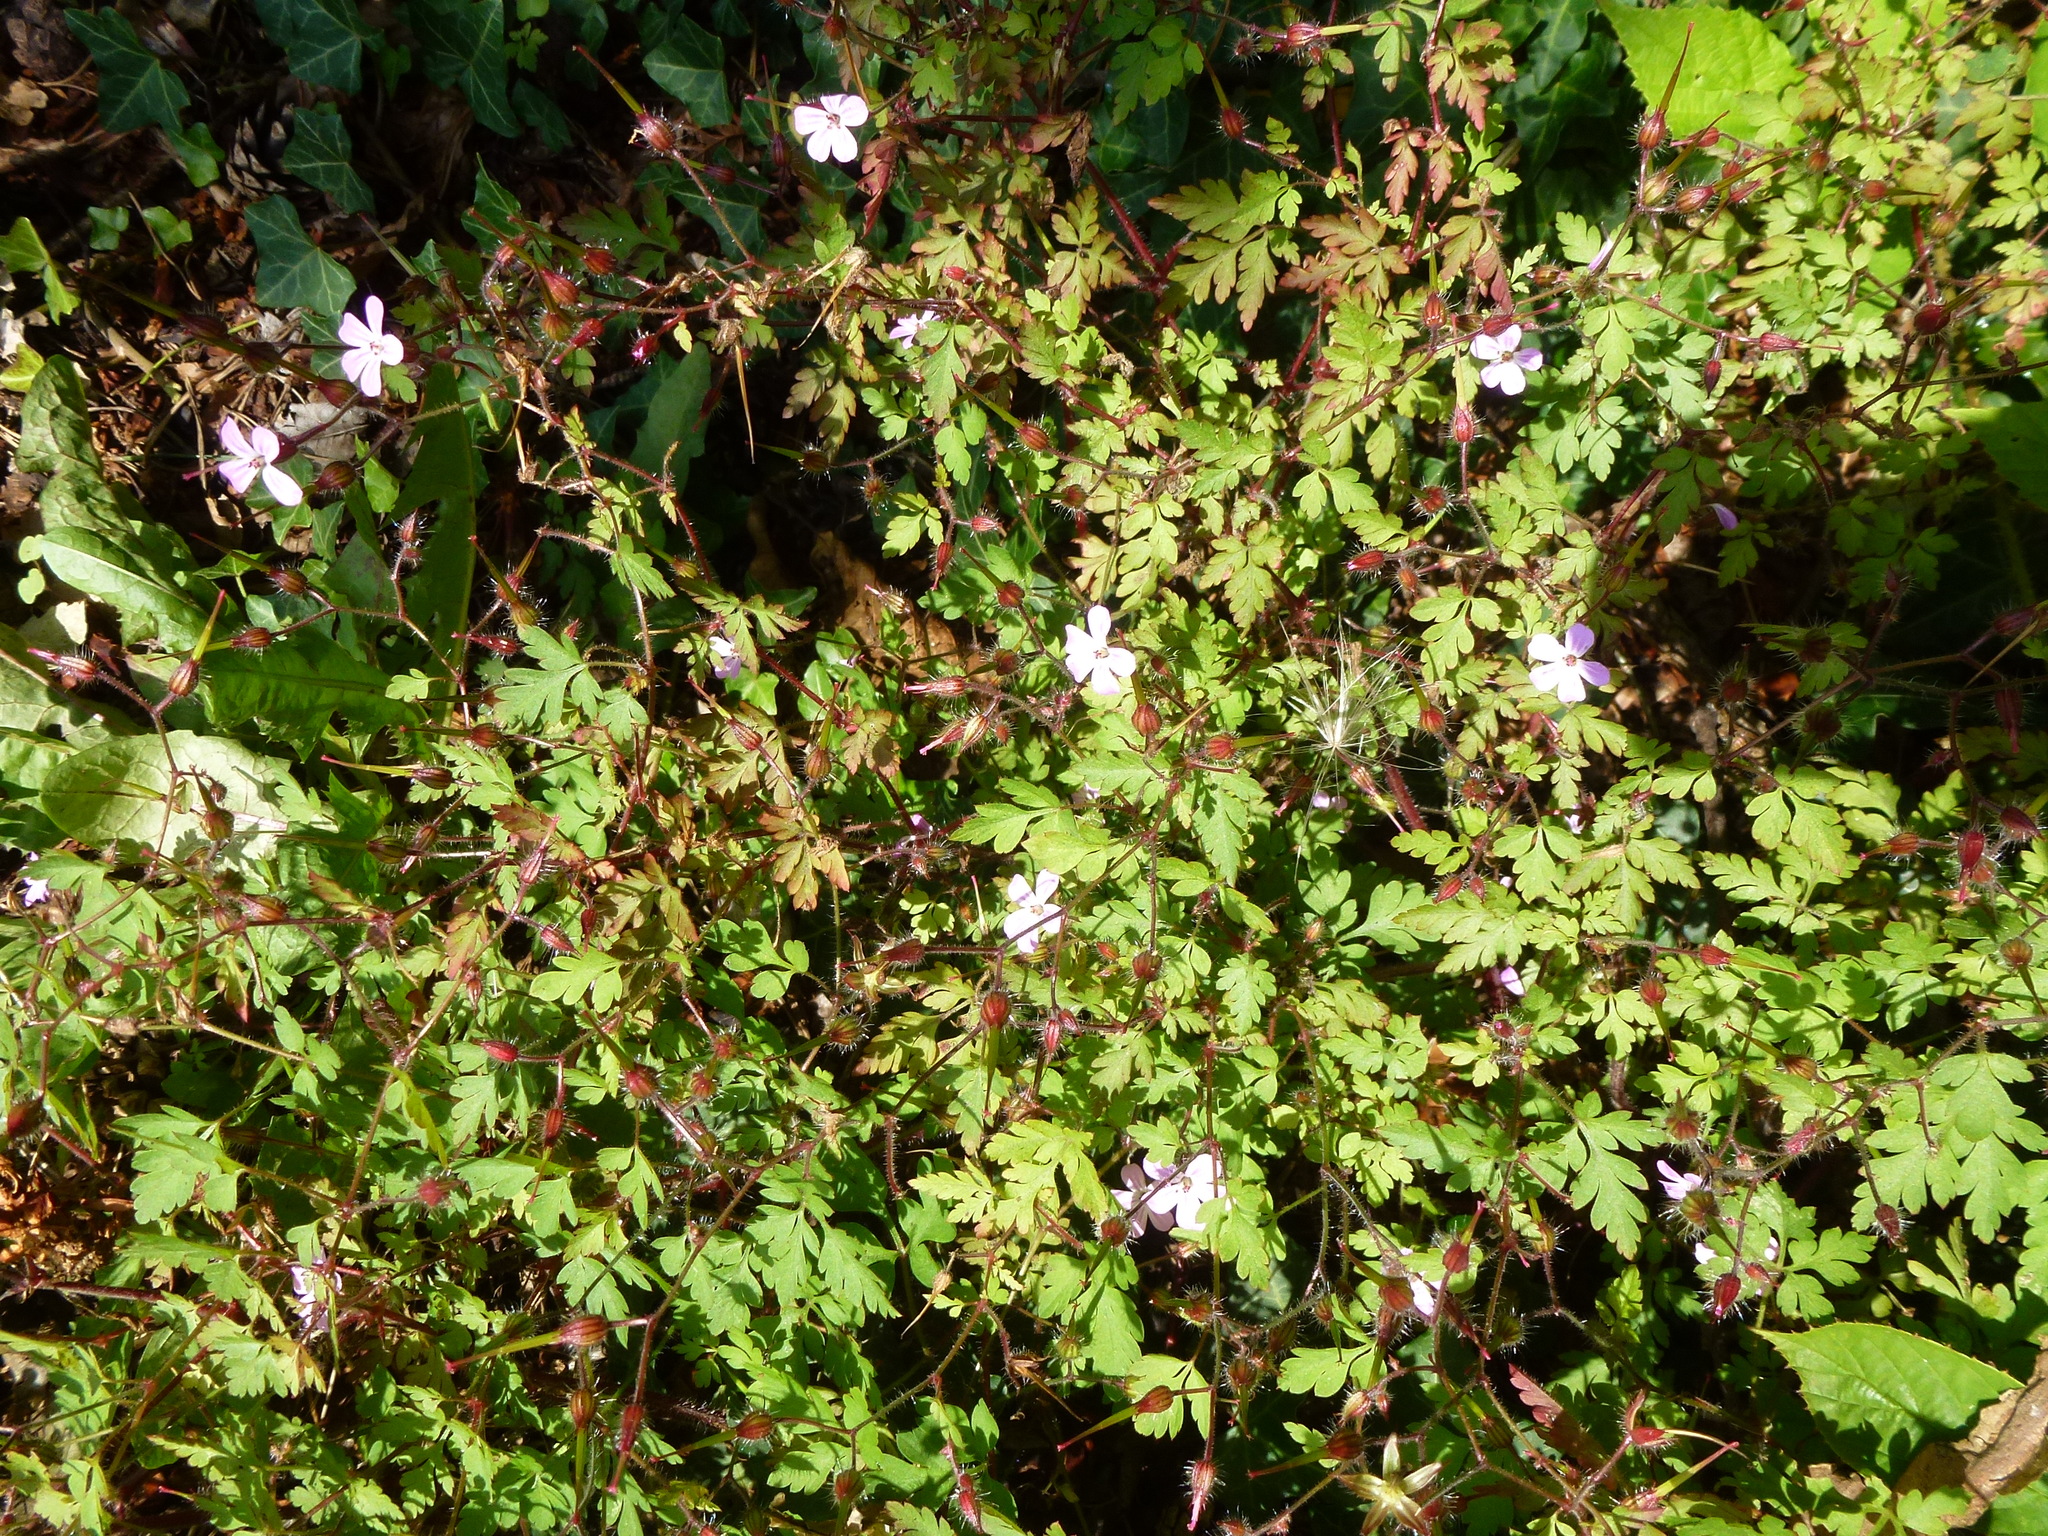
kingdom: Plantae
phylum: Tracheophyta
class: Magnoliopsida
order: Geraniales
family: Geraniaceae
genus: Geranium
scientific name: Geranium robertianum
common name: Herb-robert
